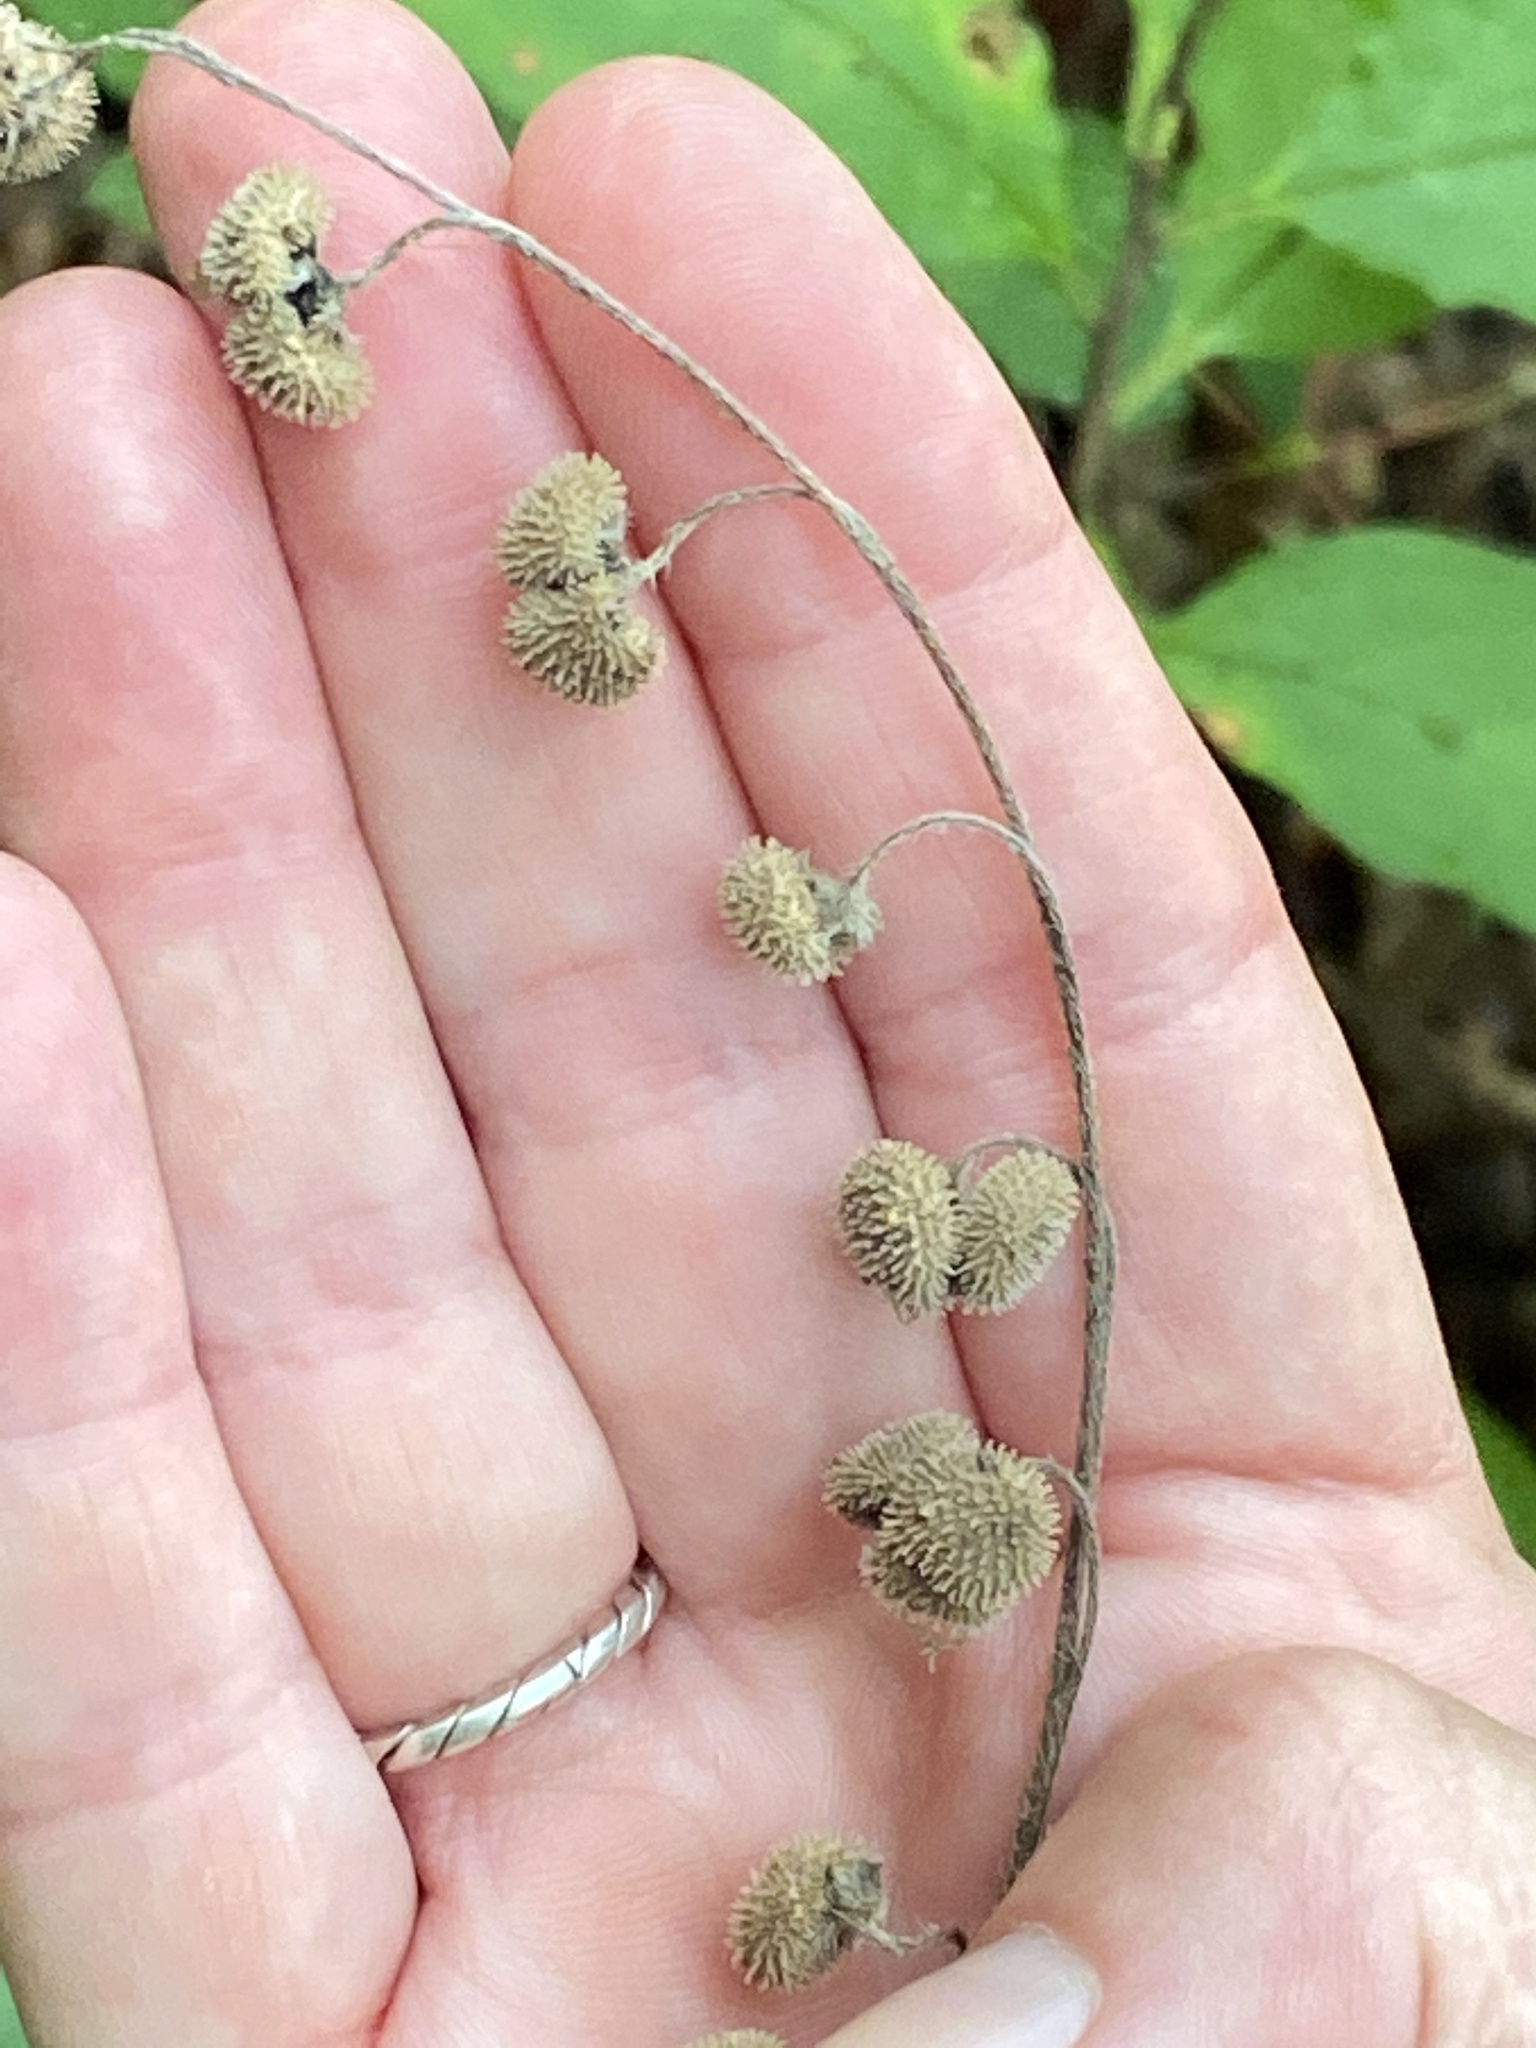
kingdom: Plantae
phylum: Tracheophyta
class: Magnoliopsida
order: Boraginales
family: Boraginaceae
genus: Andersonglossum
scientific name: Andersonglossum virginianum
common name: Wild comfrey
